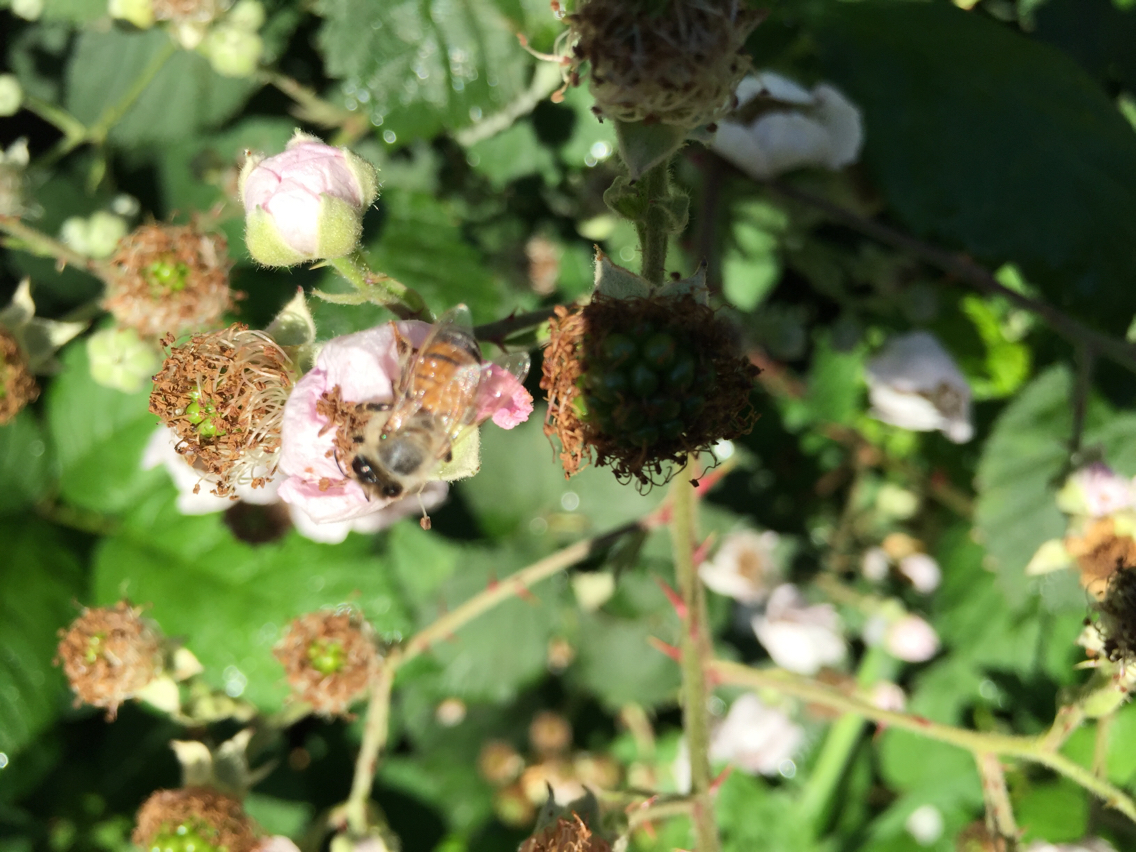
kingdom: Animalia
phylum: Arthropoda
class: Insecta
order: Hymenoptera
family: Apidae
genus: Apis
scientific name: Apis mellifera
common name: Honey bee
